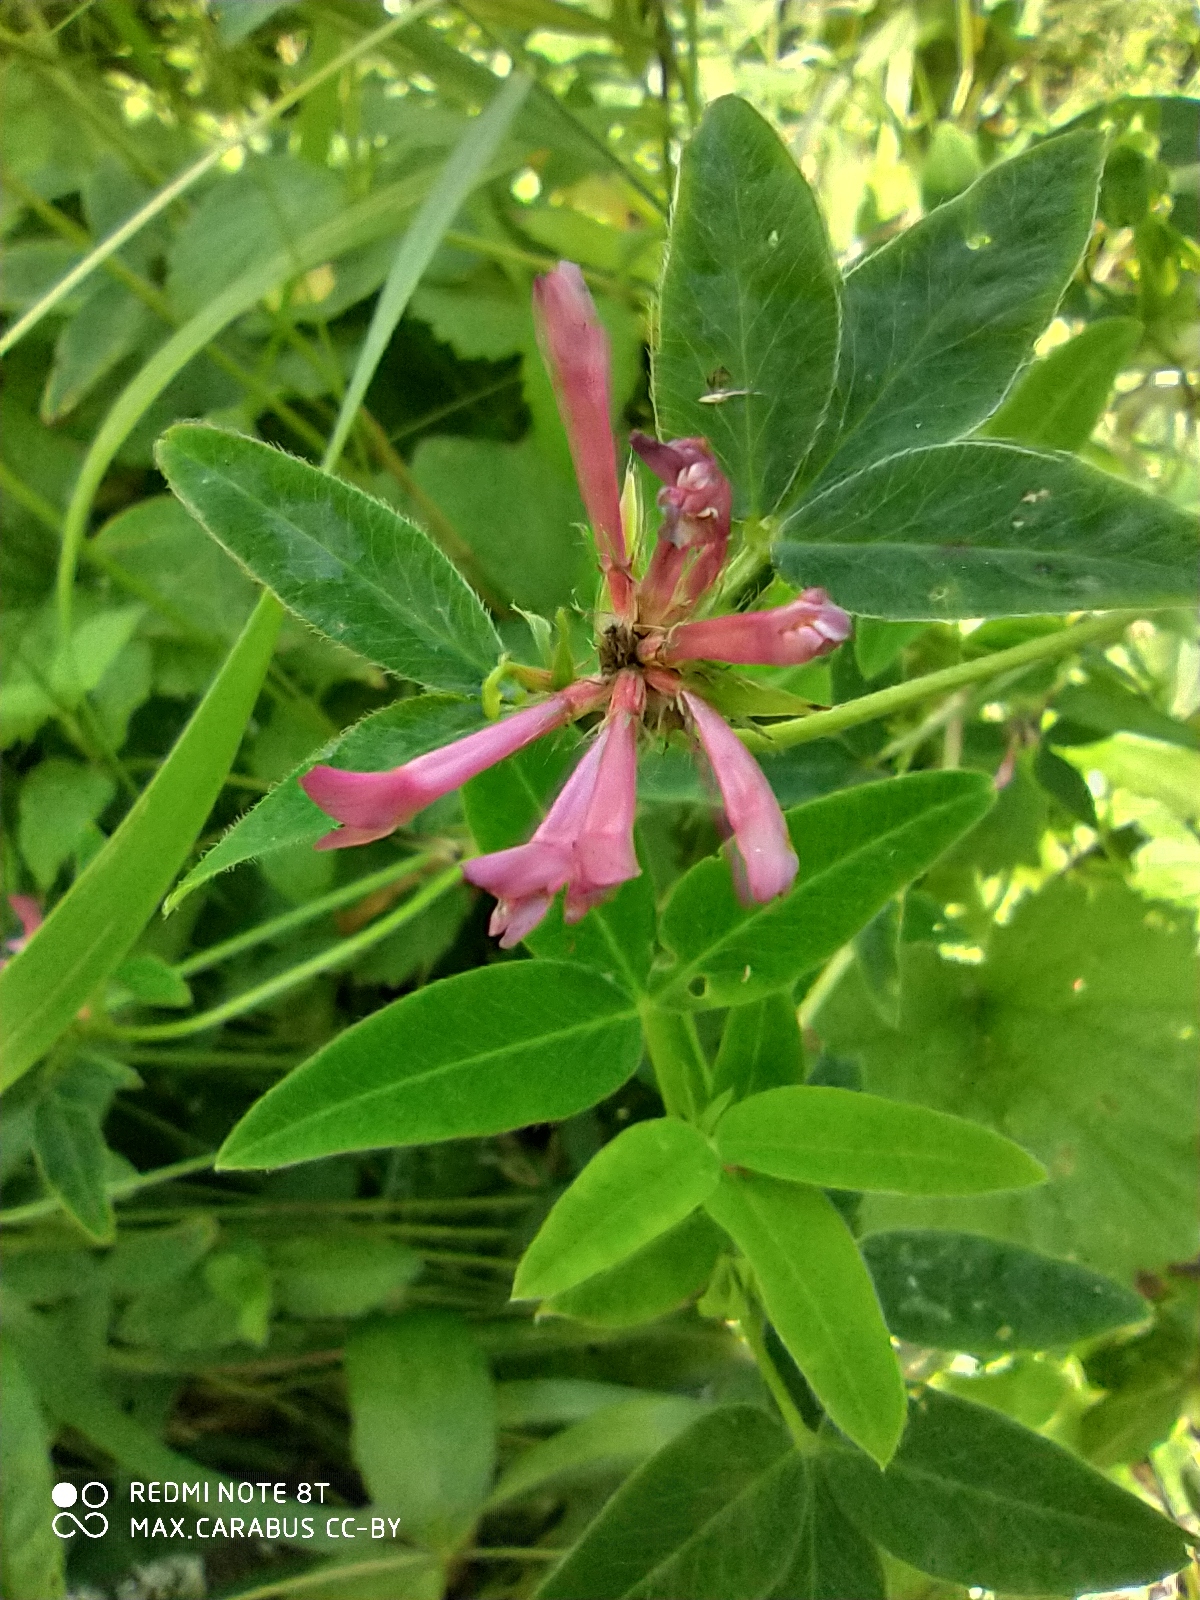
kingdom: Plantae
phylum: Tracheophyta
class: Magnoliopsida
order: Fabales
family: Fabaceae
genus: Trifolium
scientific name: Trifolium medium
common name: Zigzag clover
